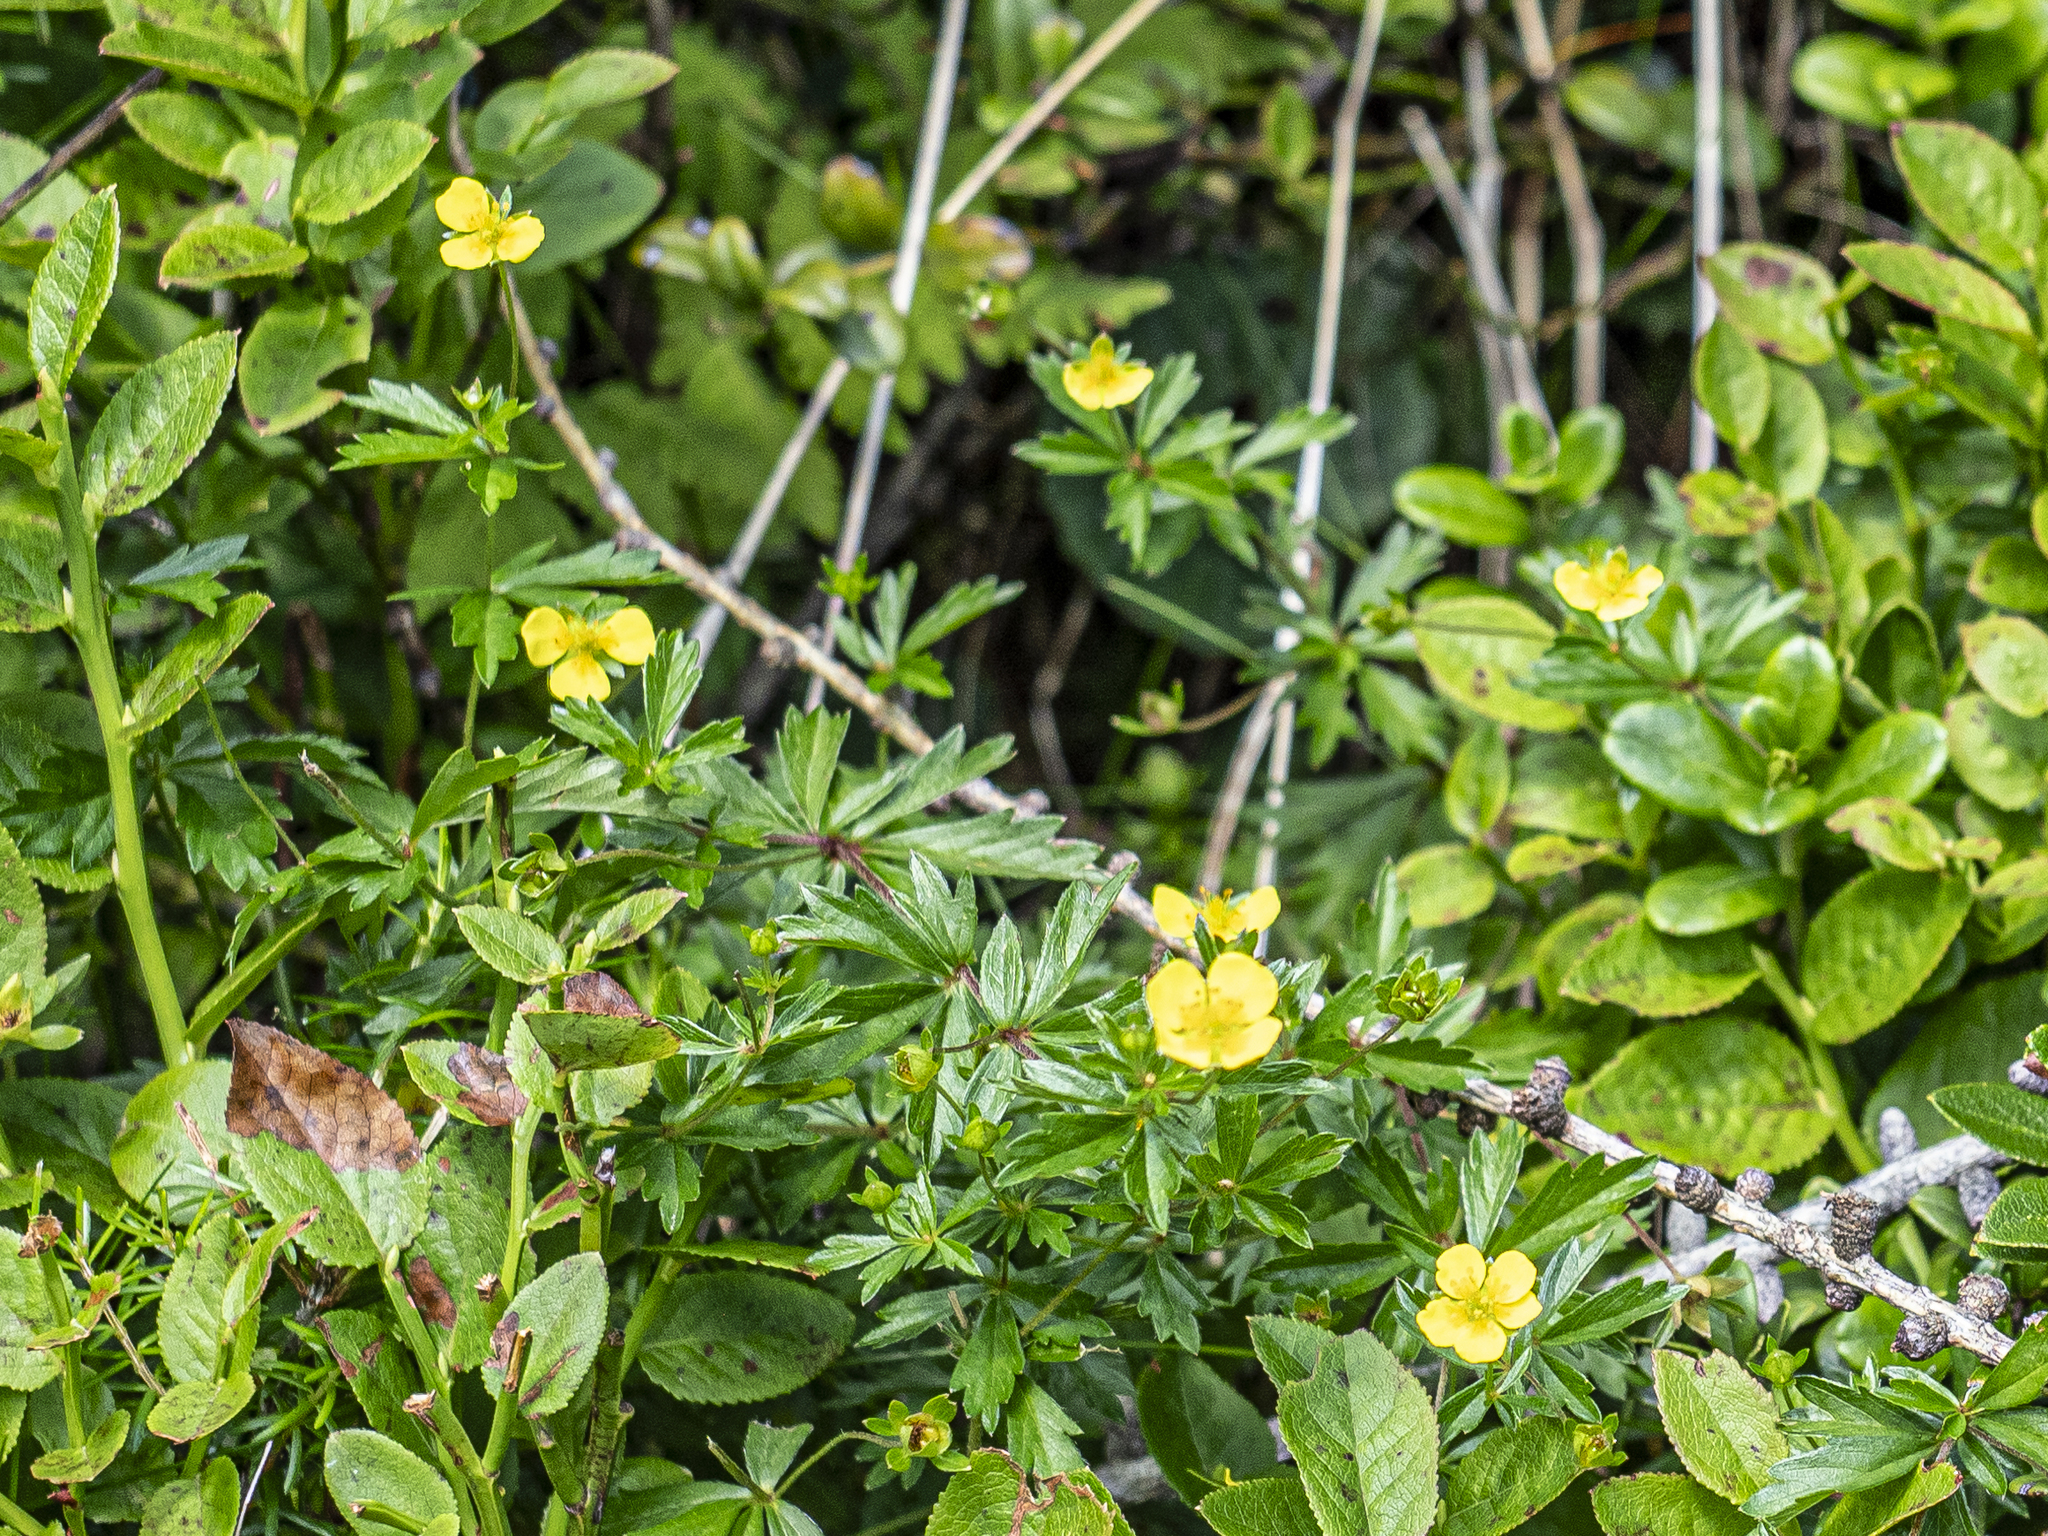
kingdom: Plantae
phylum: Tracheophyta
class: Magnoliopsida
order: Rosales
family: Rosaceae
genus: Potentilla
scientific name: Potentilla erecta
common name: Tormentil
